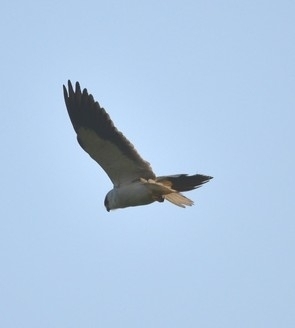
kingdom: Animalia
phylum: Chordata
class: Aves
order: Accipitriformes
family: Accipitridae
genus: Elanus
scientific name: Elanus caeruleus
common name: Black-winged kite
